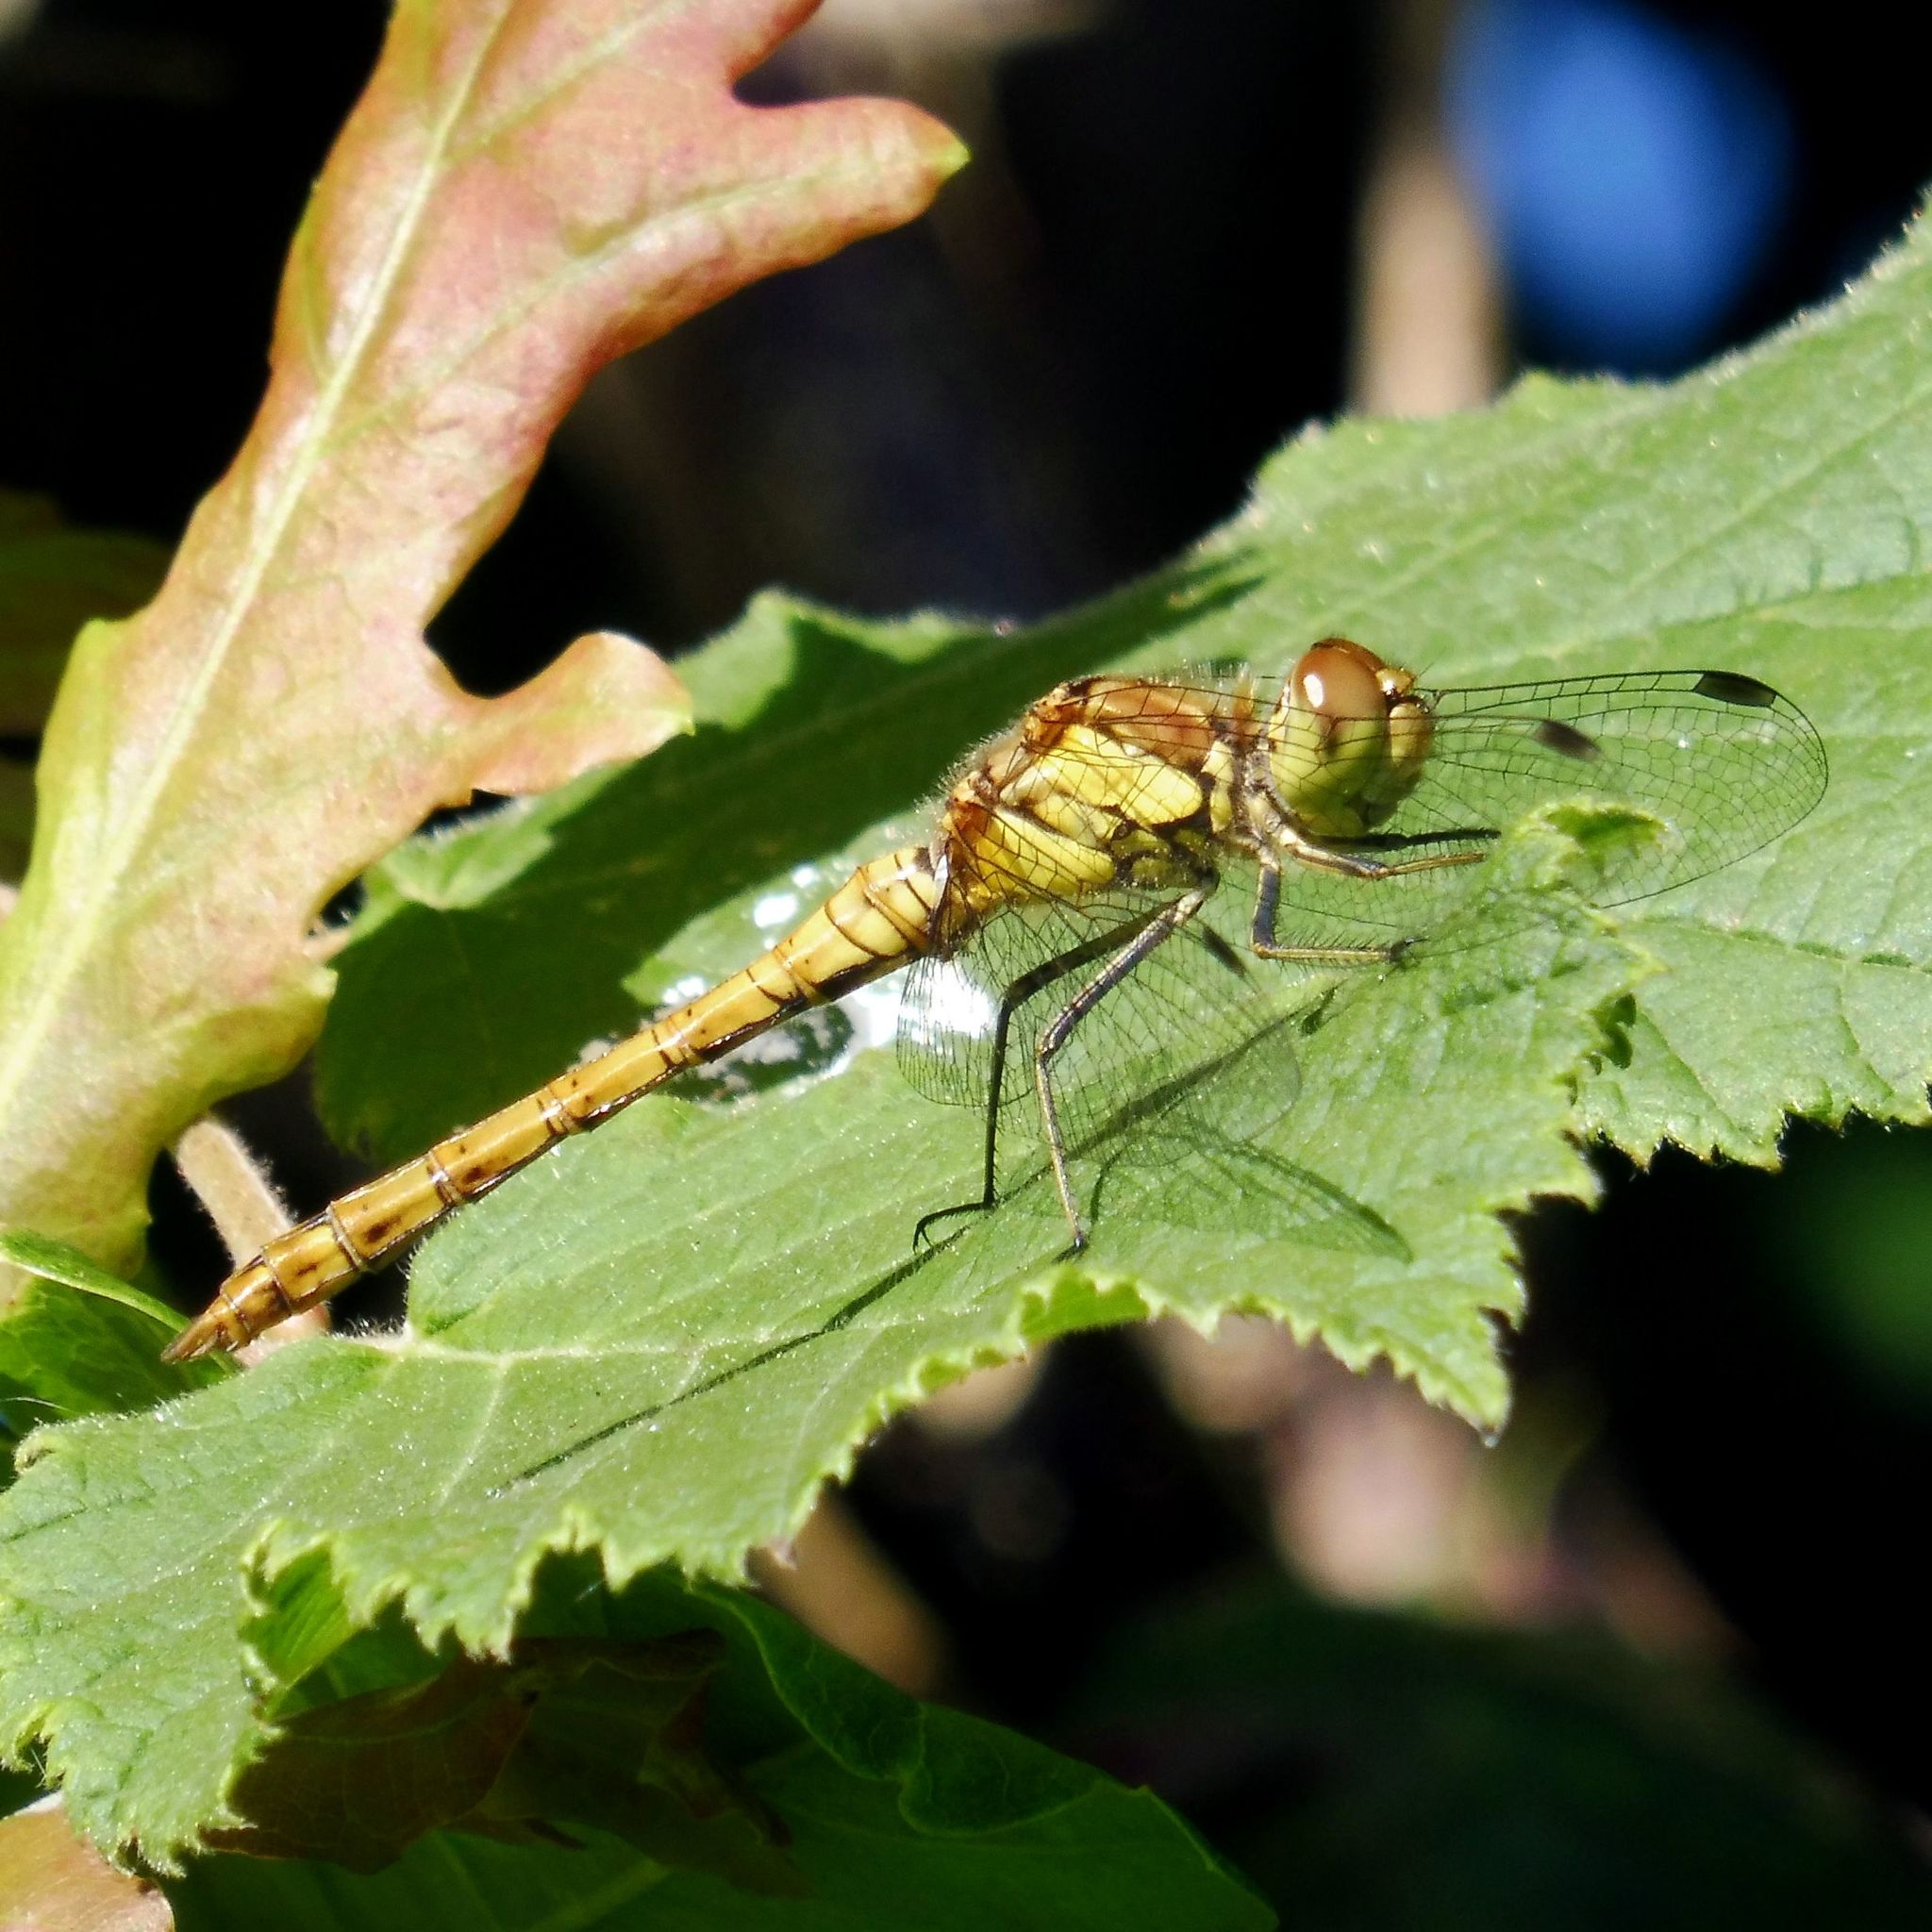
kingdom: Animalia
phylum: Arthropoda
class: Insecta
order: Odonata
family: Libellulidae
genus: Sympetrum
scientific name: Sympetrum striolatum
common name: Common darter
